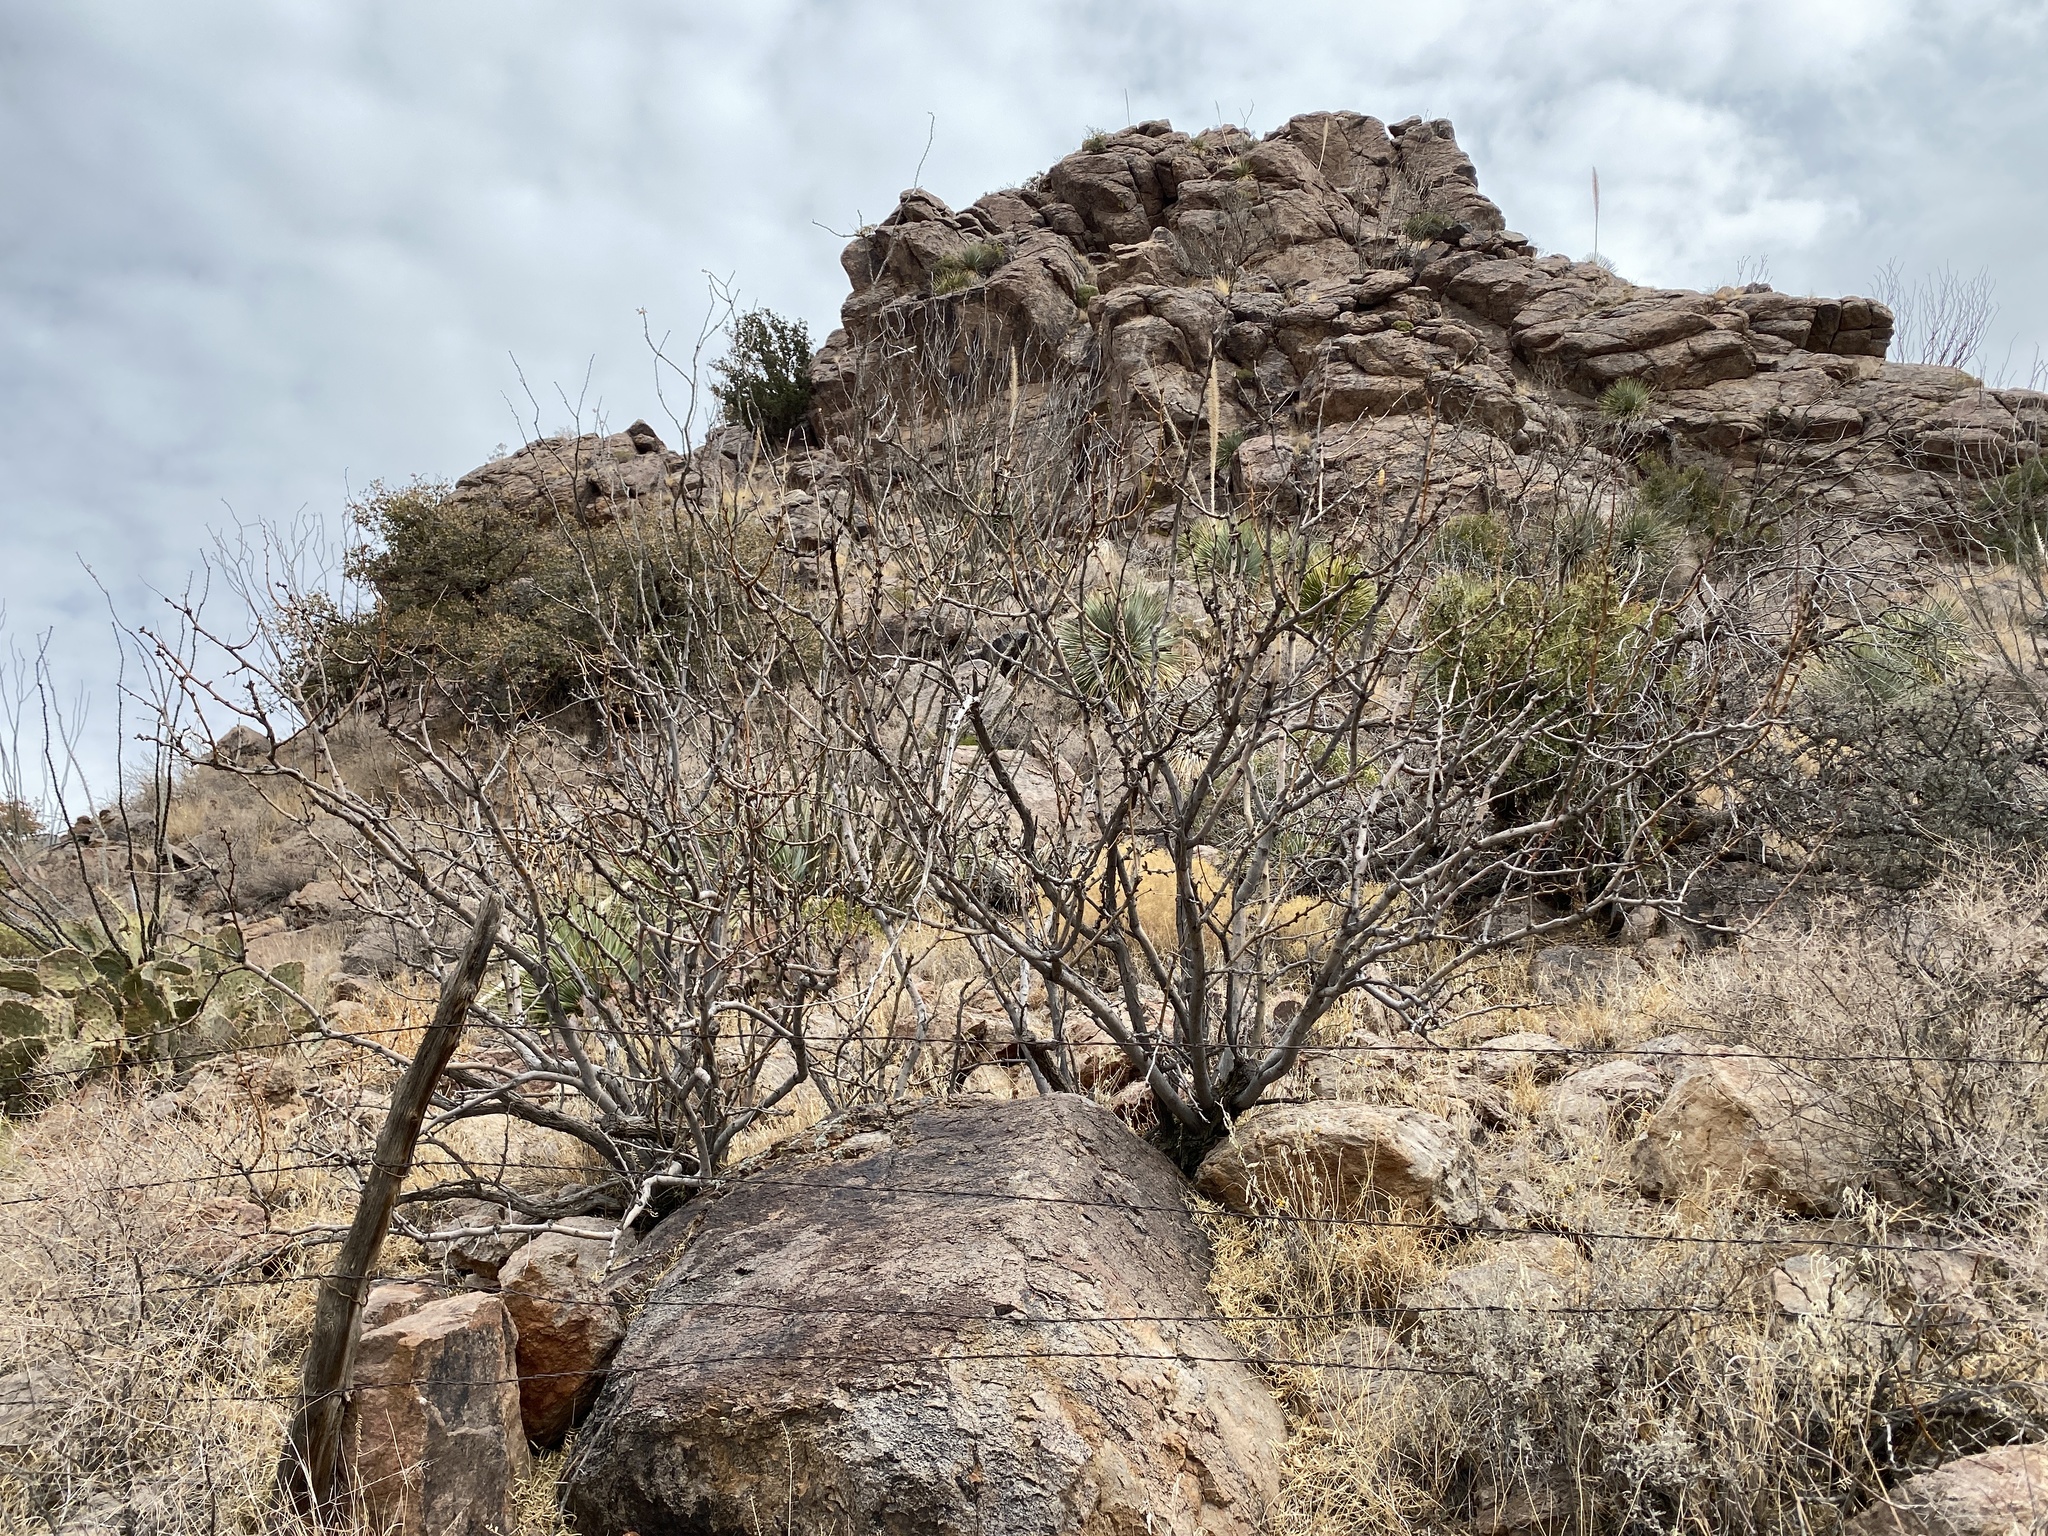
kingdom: Plantae
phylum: Tracheophyta
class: Magnoliopsida
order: Fabales
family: Fabaceae
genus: Prosopis
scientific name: Prosopis glandulosa
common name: Honey mesquite
